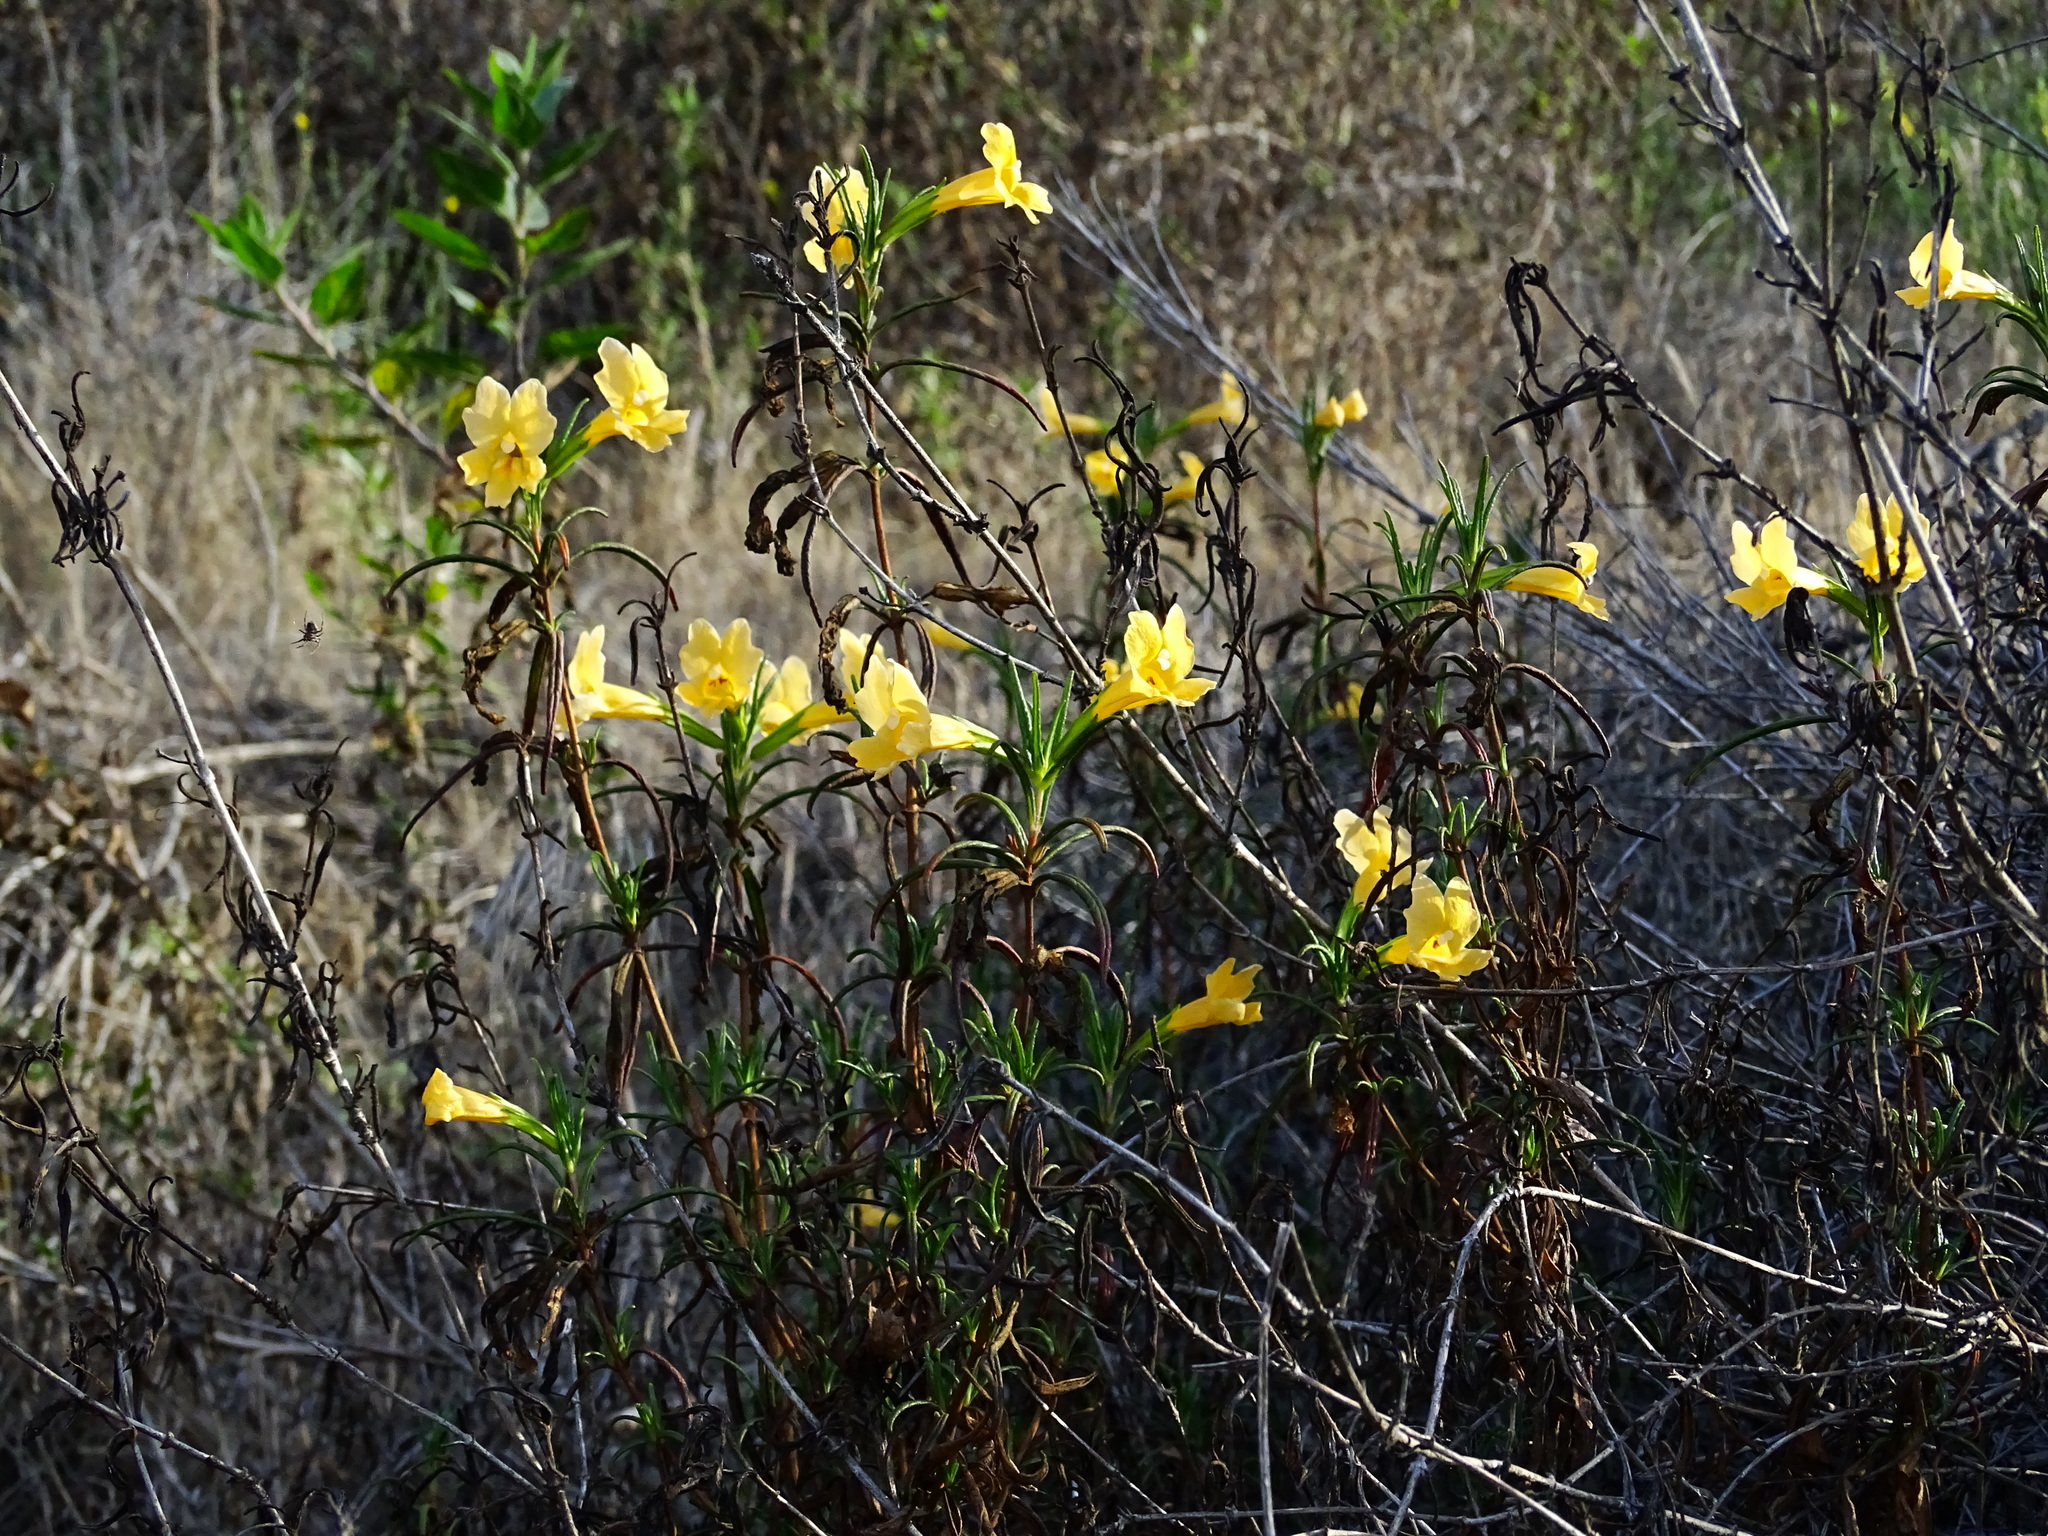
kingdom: Plantae
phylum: Tracheophyta
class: Magnoliopsida
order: Lamiales
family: Phrymaceae
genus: Diplacus
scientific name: Diplacus australis
